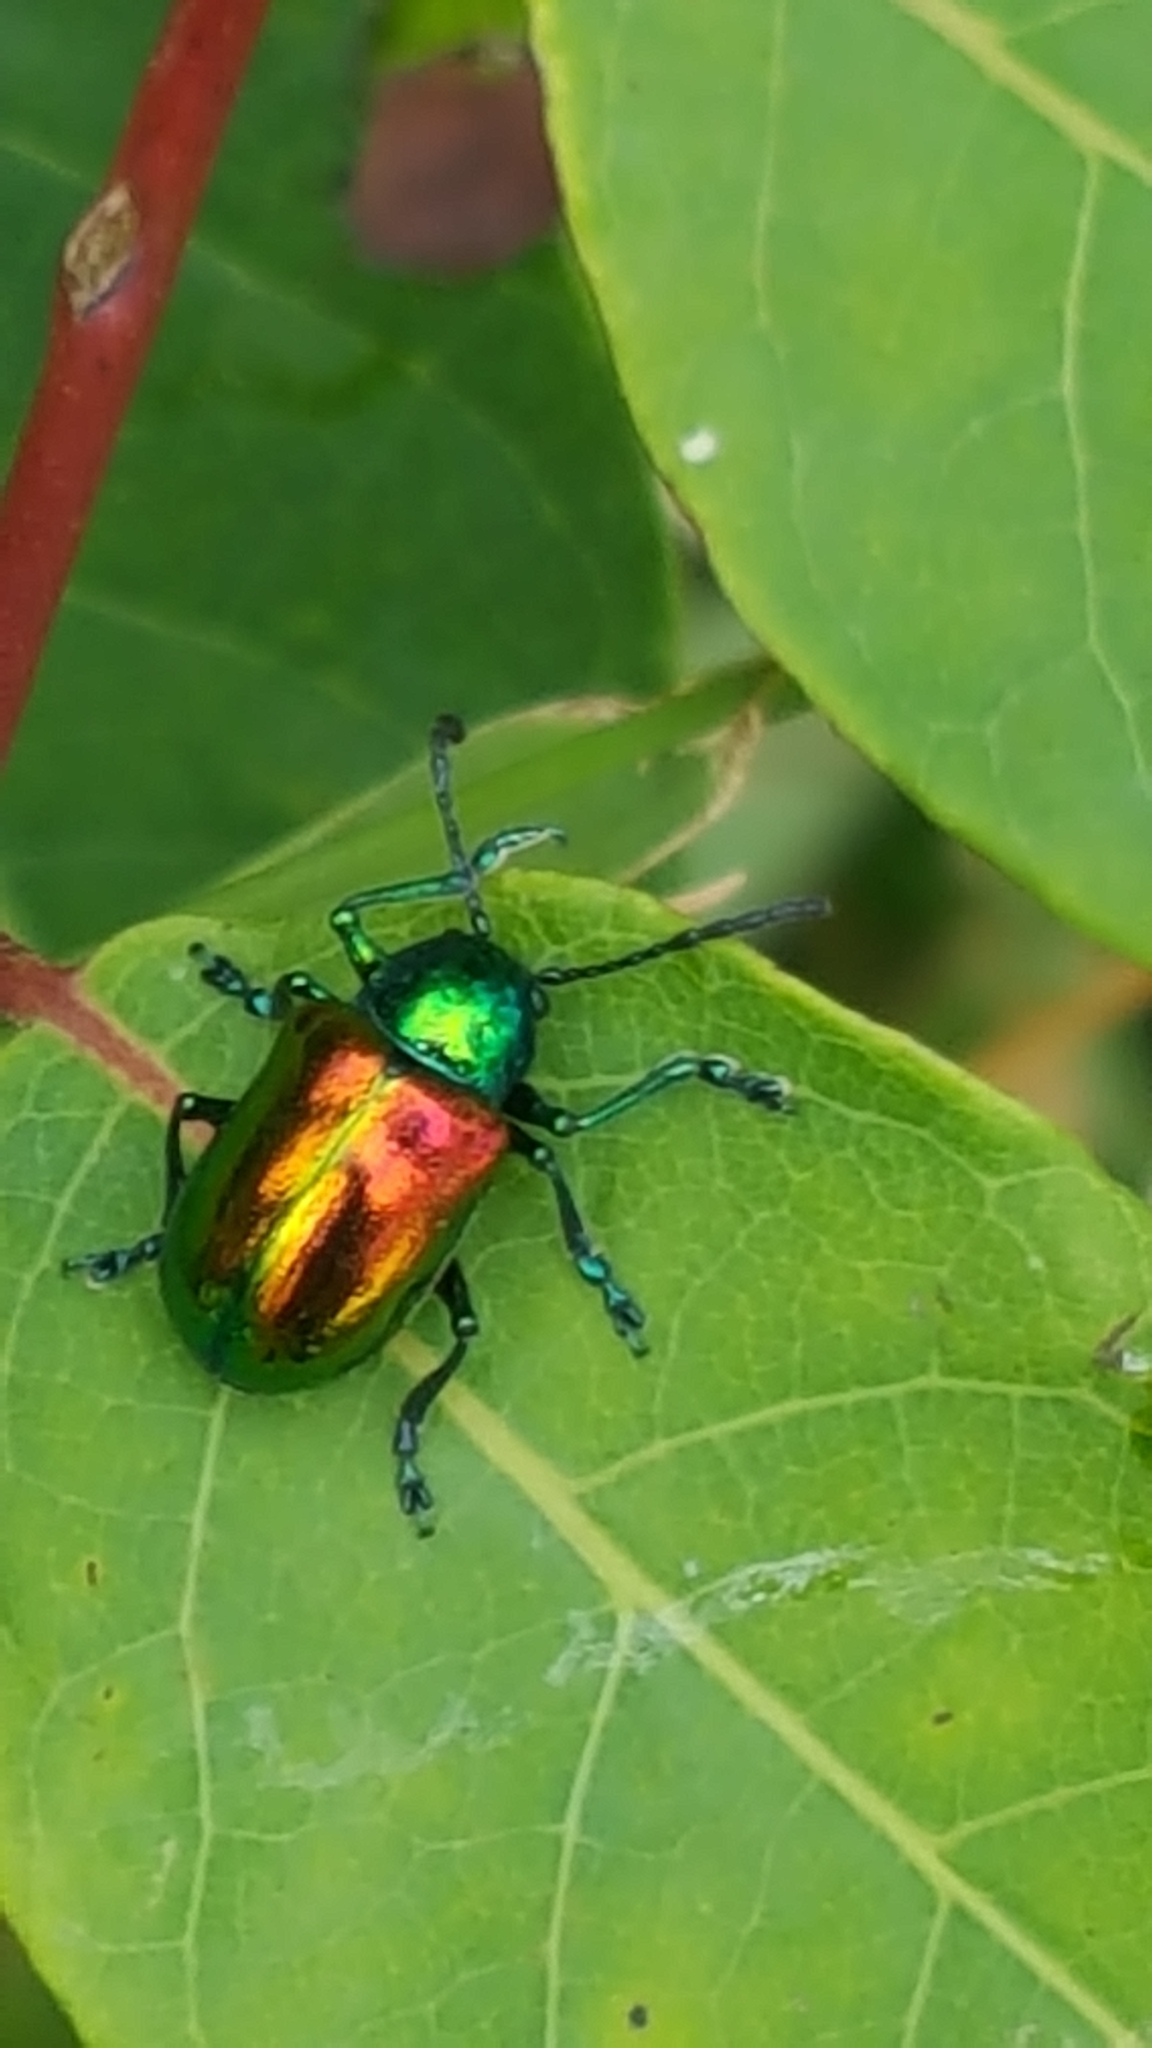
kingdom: Animalia
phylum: Arthropoda
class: Insecta
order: Coleoptera
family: Chrysomelidae
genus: Chrysochus
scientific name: Chrysochus auratus
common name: Dogbane leaf beetle
